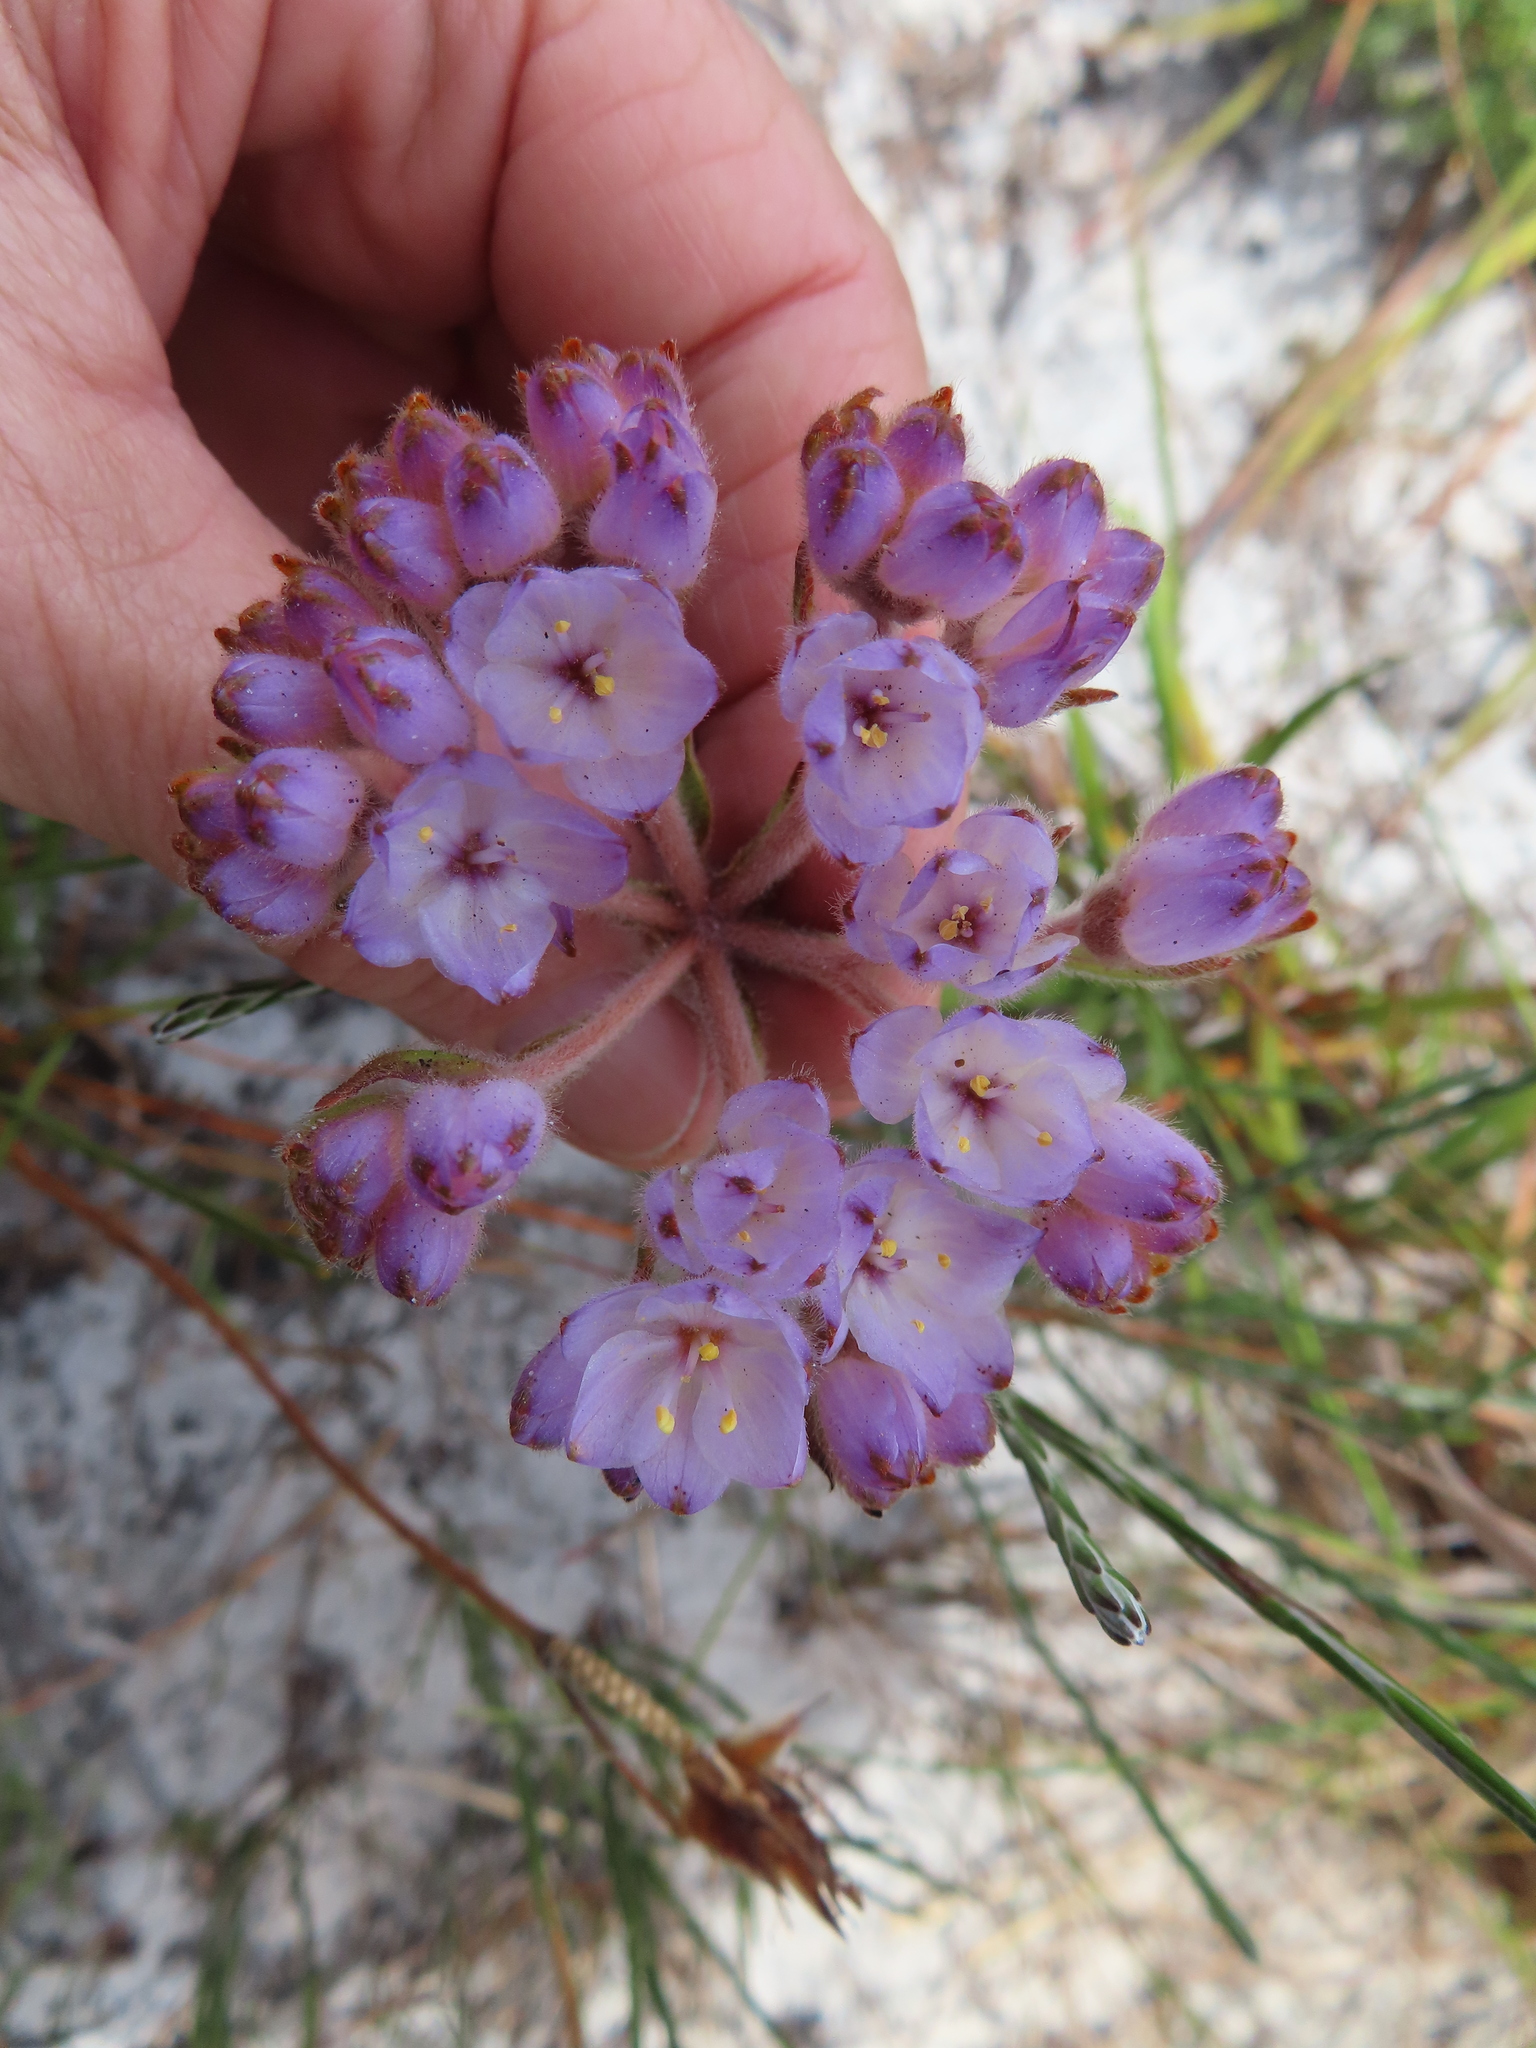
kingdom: Plantae
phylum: Tracheophyta
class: Liliopsida
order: Commelinales
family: Haemodoraceae
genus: Dilatris
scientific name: Dilatris pillansii
